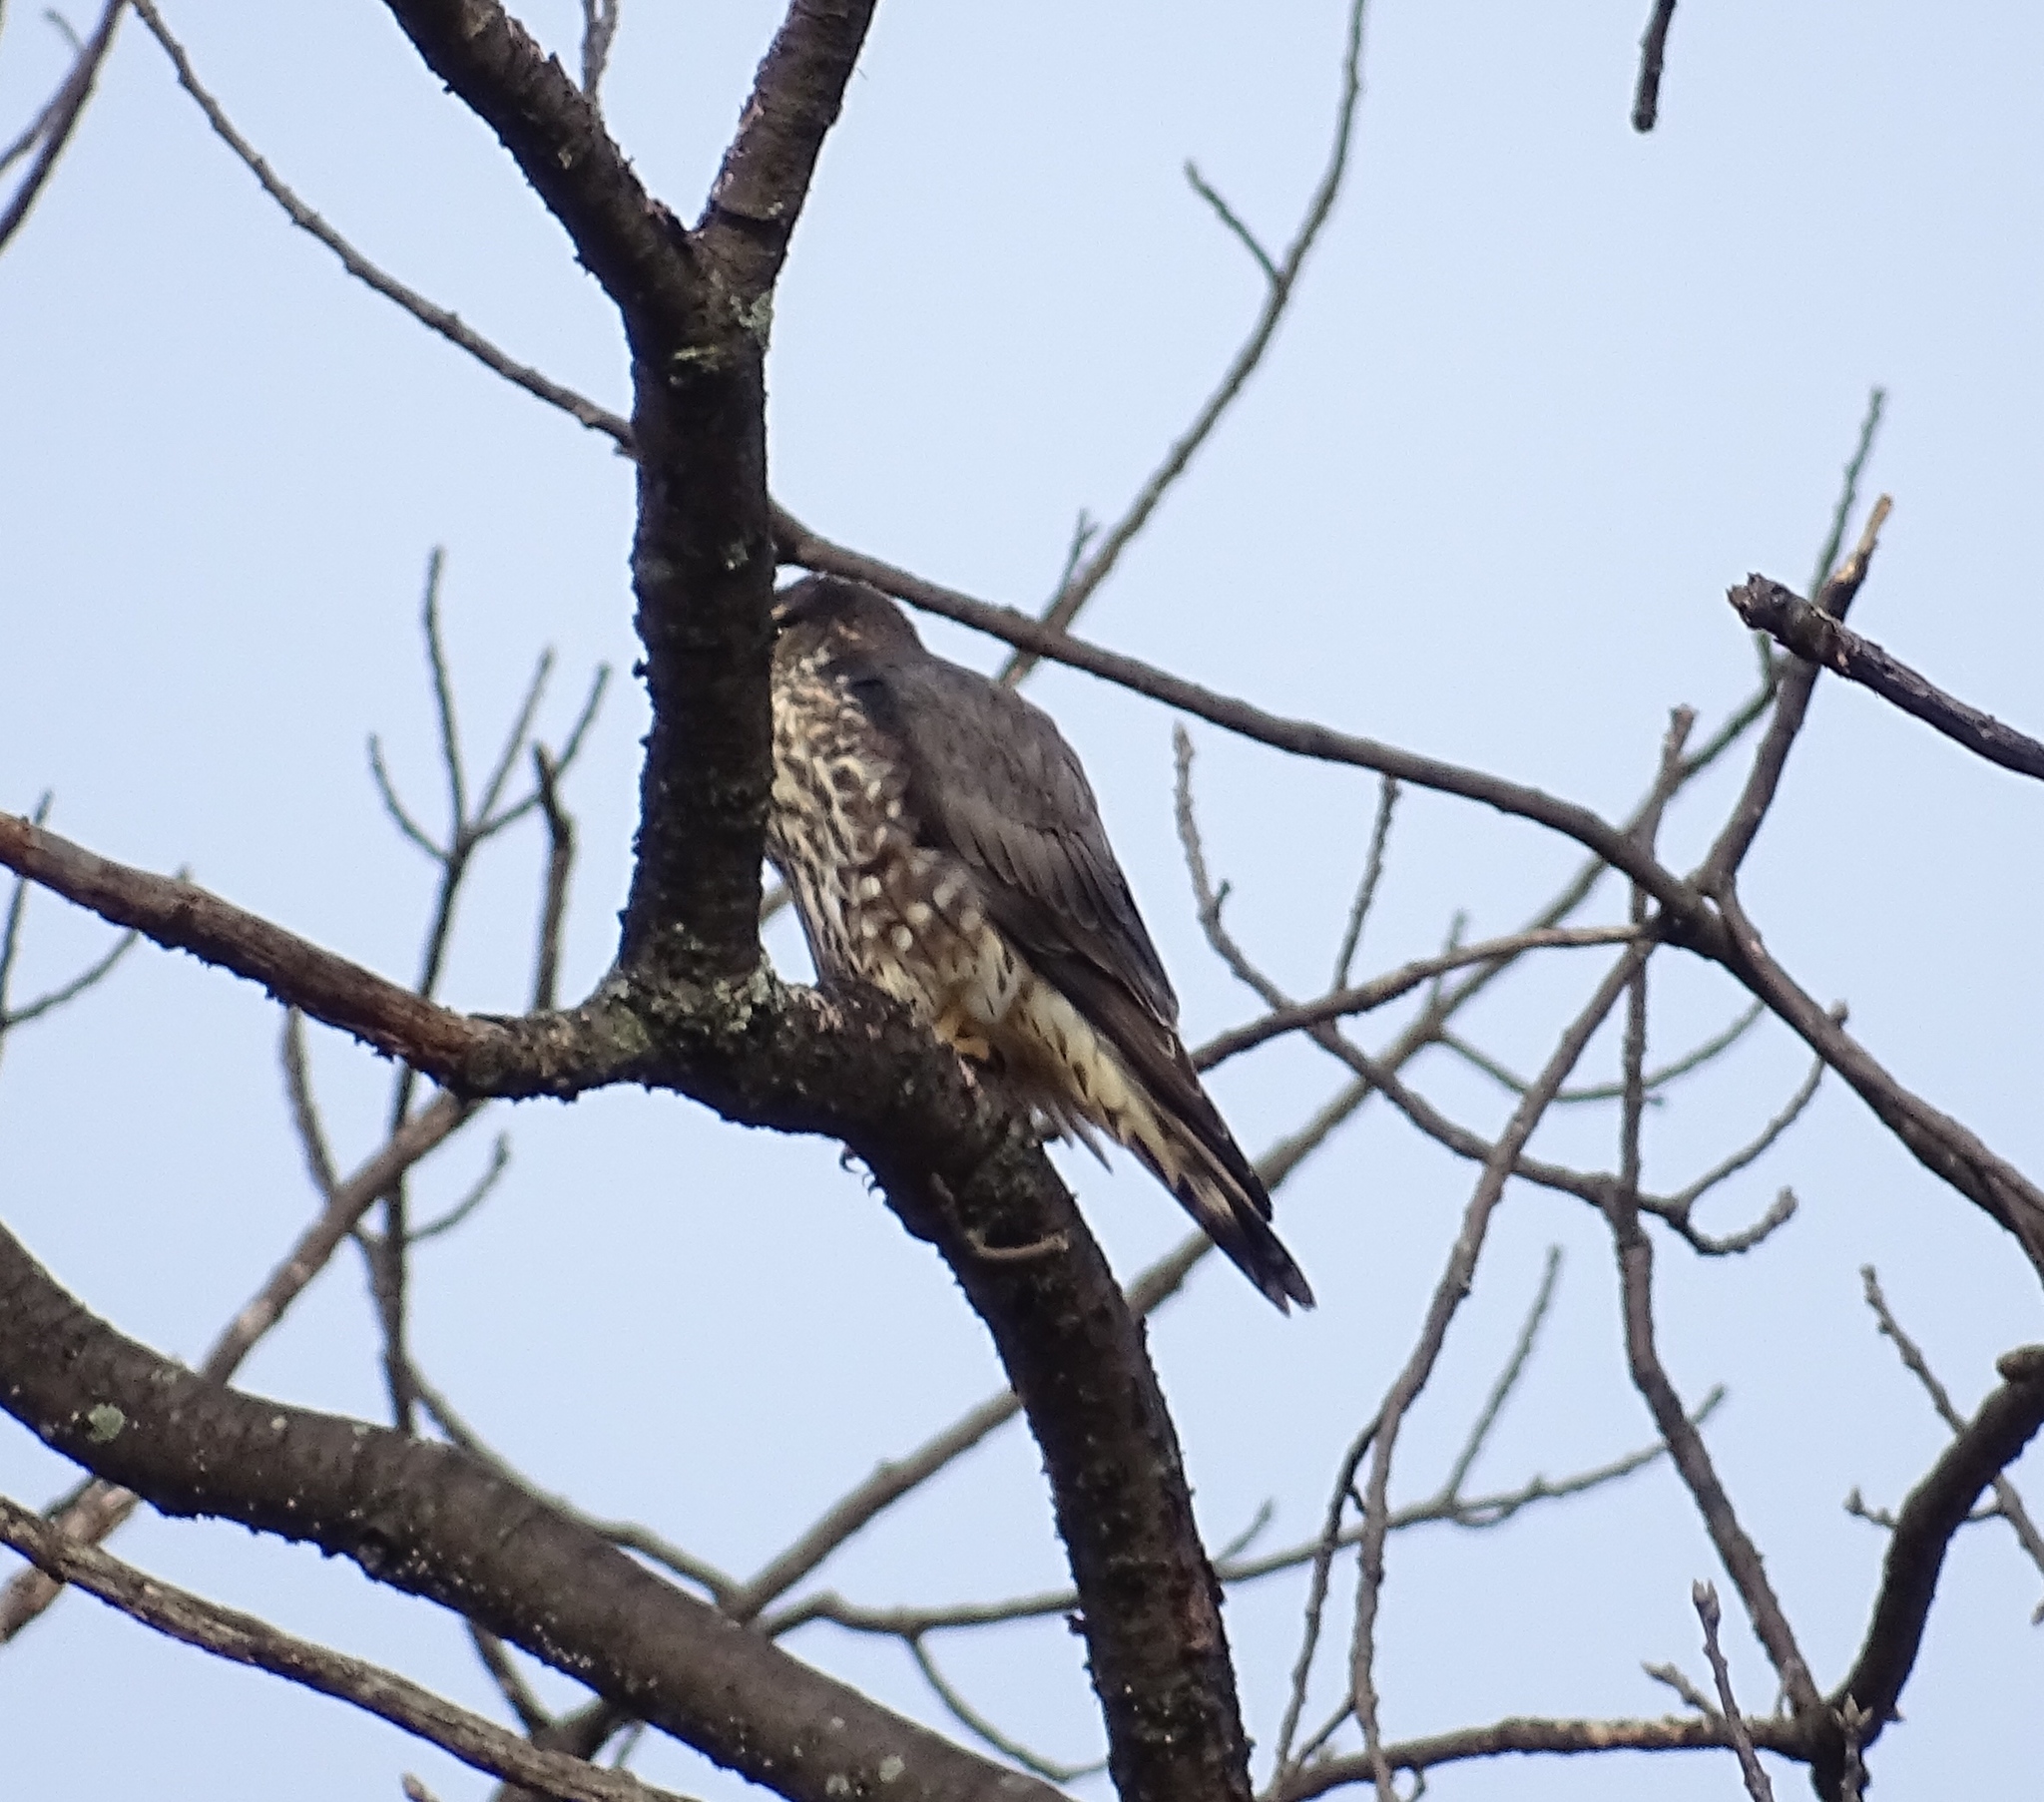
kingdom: Animalia
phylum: Chordata
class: Aves
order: Falconiformes
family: Falconidae
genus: Falco
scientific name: Falco columbarius
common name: Merlin
